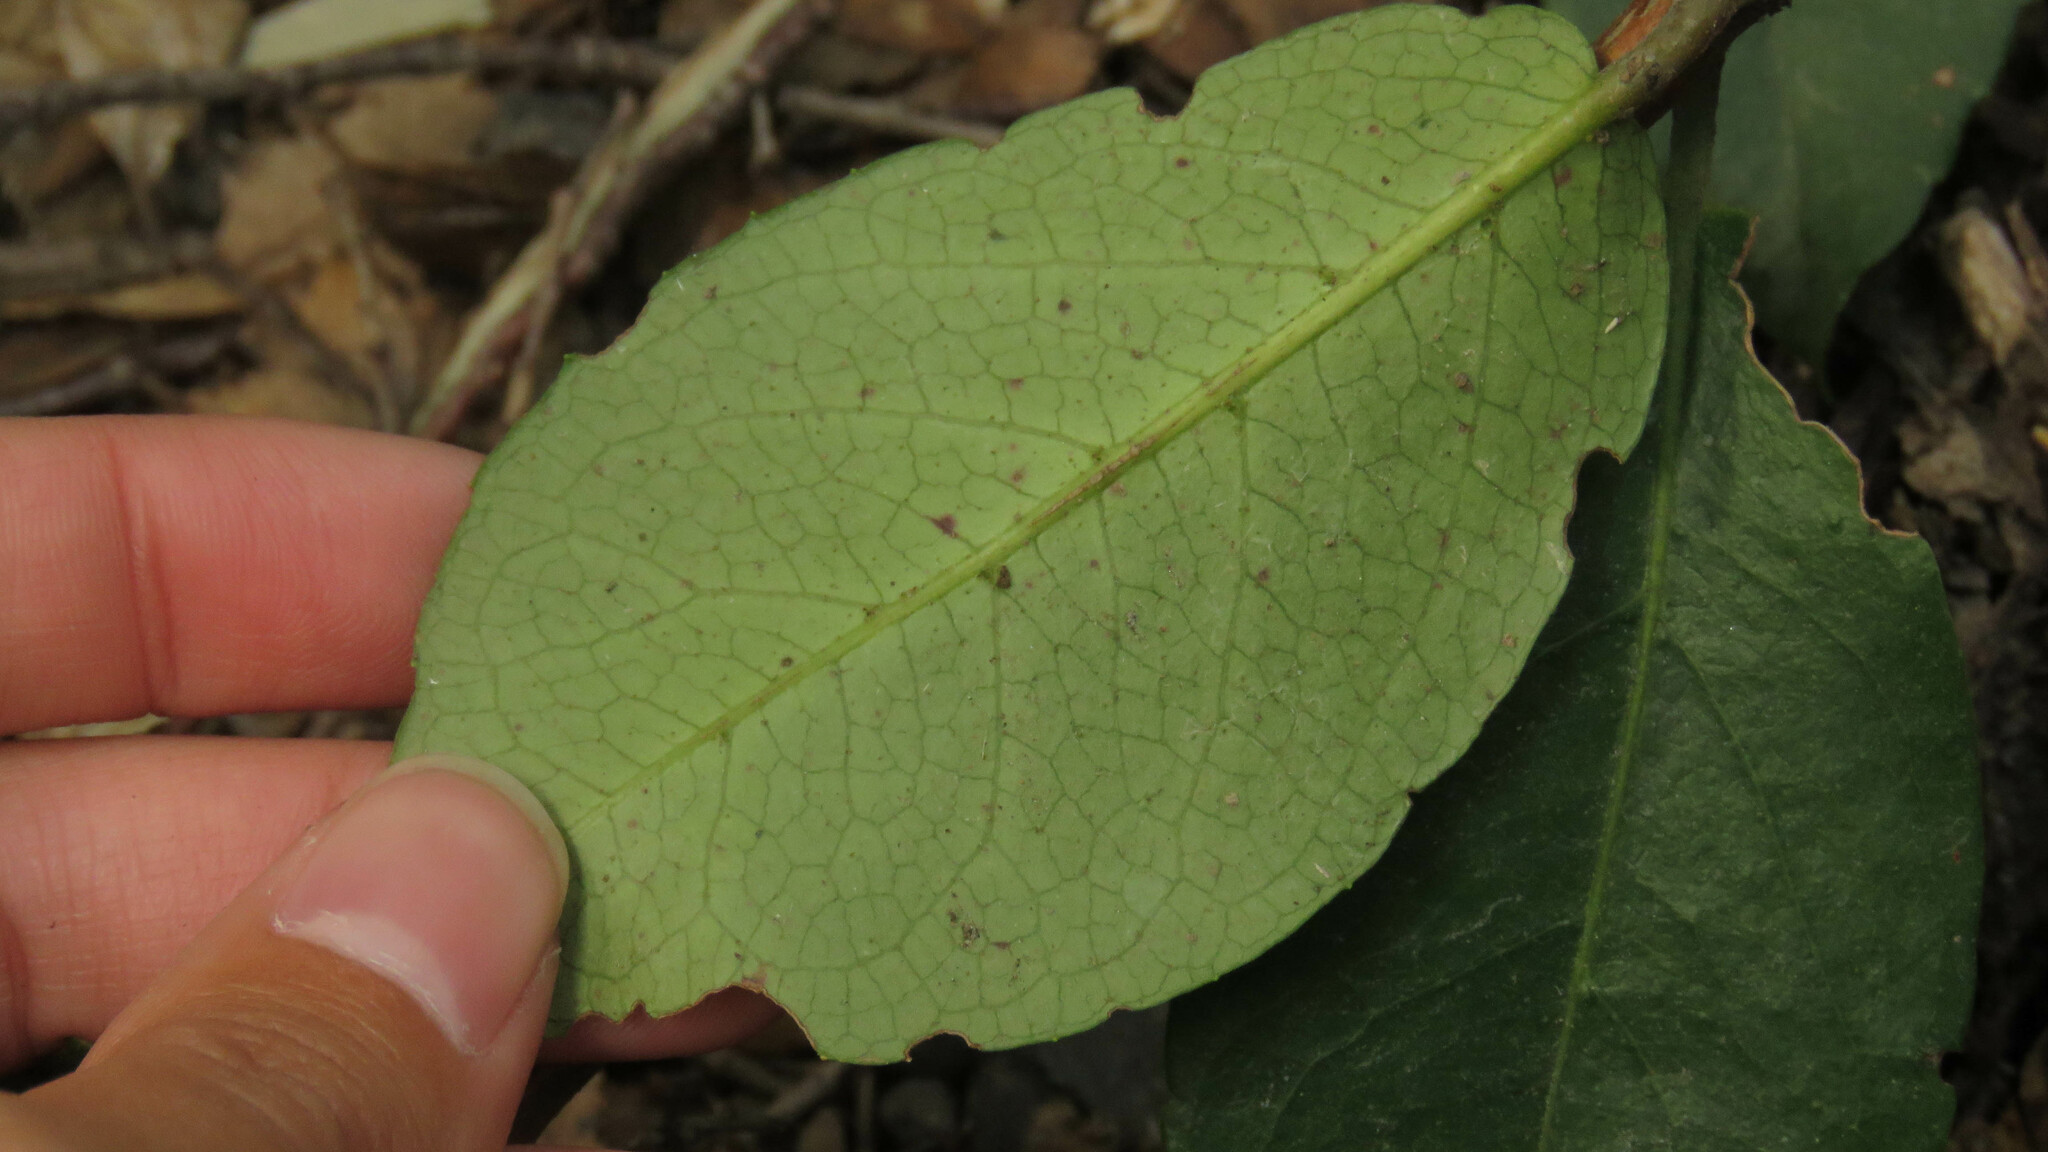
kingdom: Plantae
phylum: Tracheophyta
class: Magnoliopsida
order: Cornales
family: Hydrangeaceae
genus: Hydrangea
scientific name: Hydrangea serratifolia
